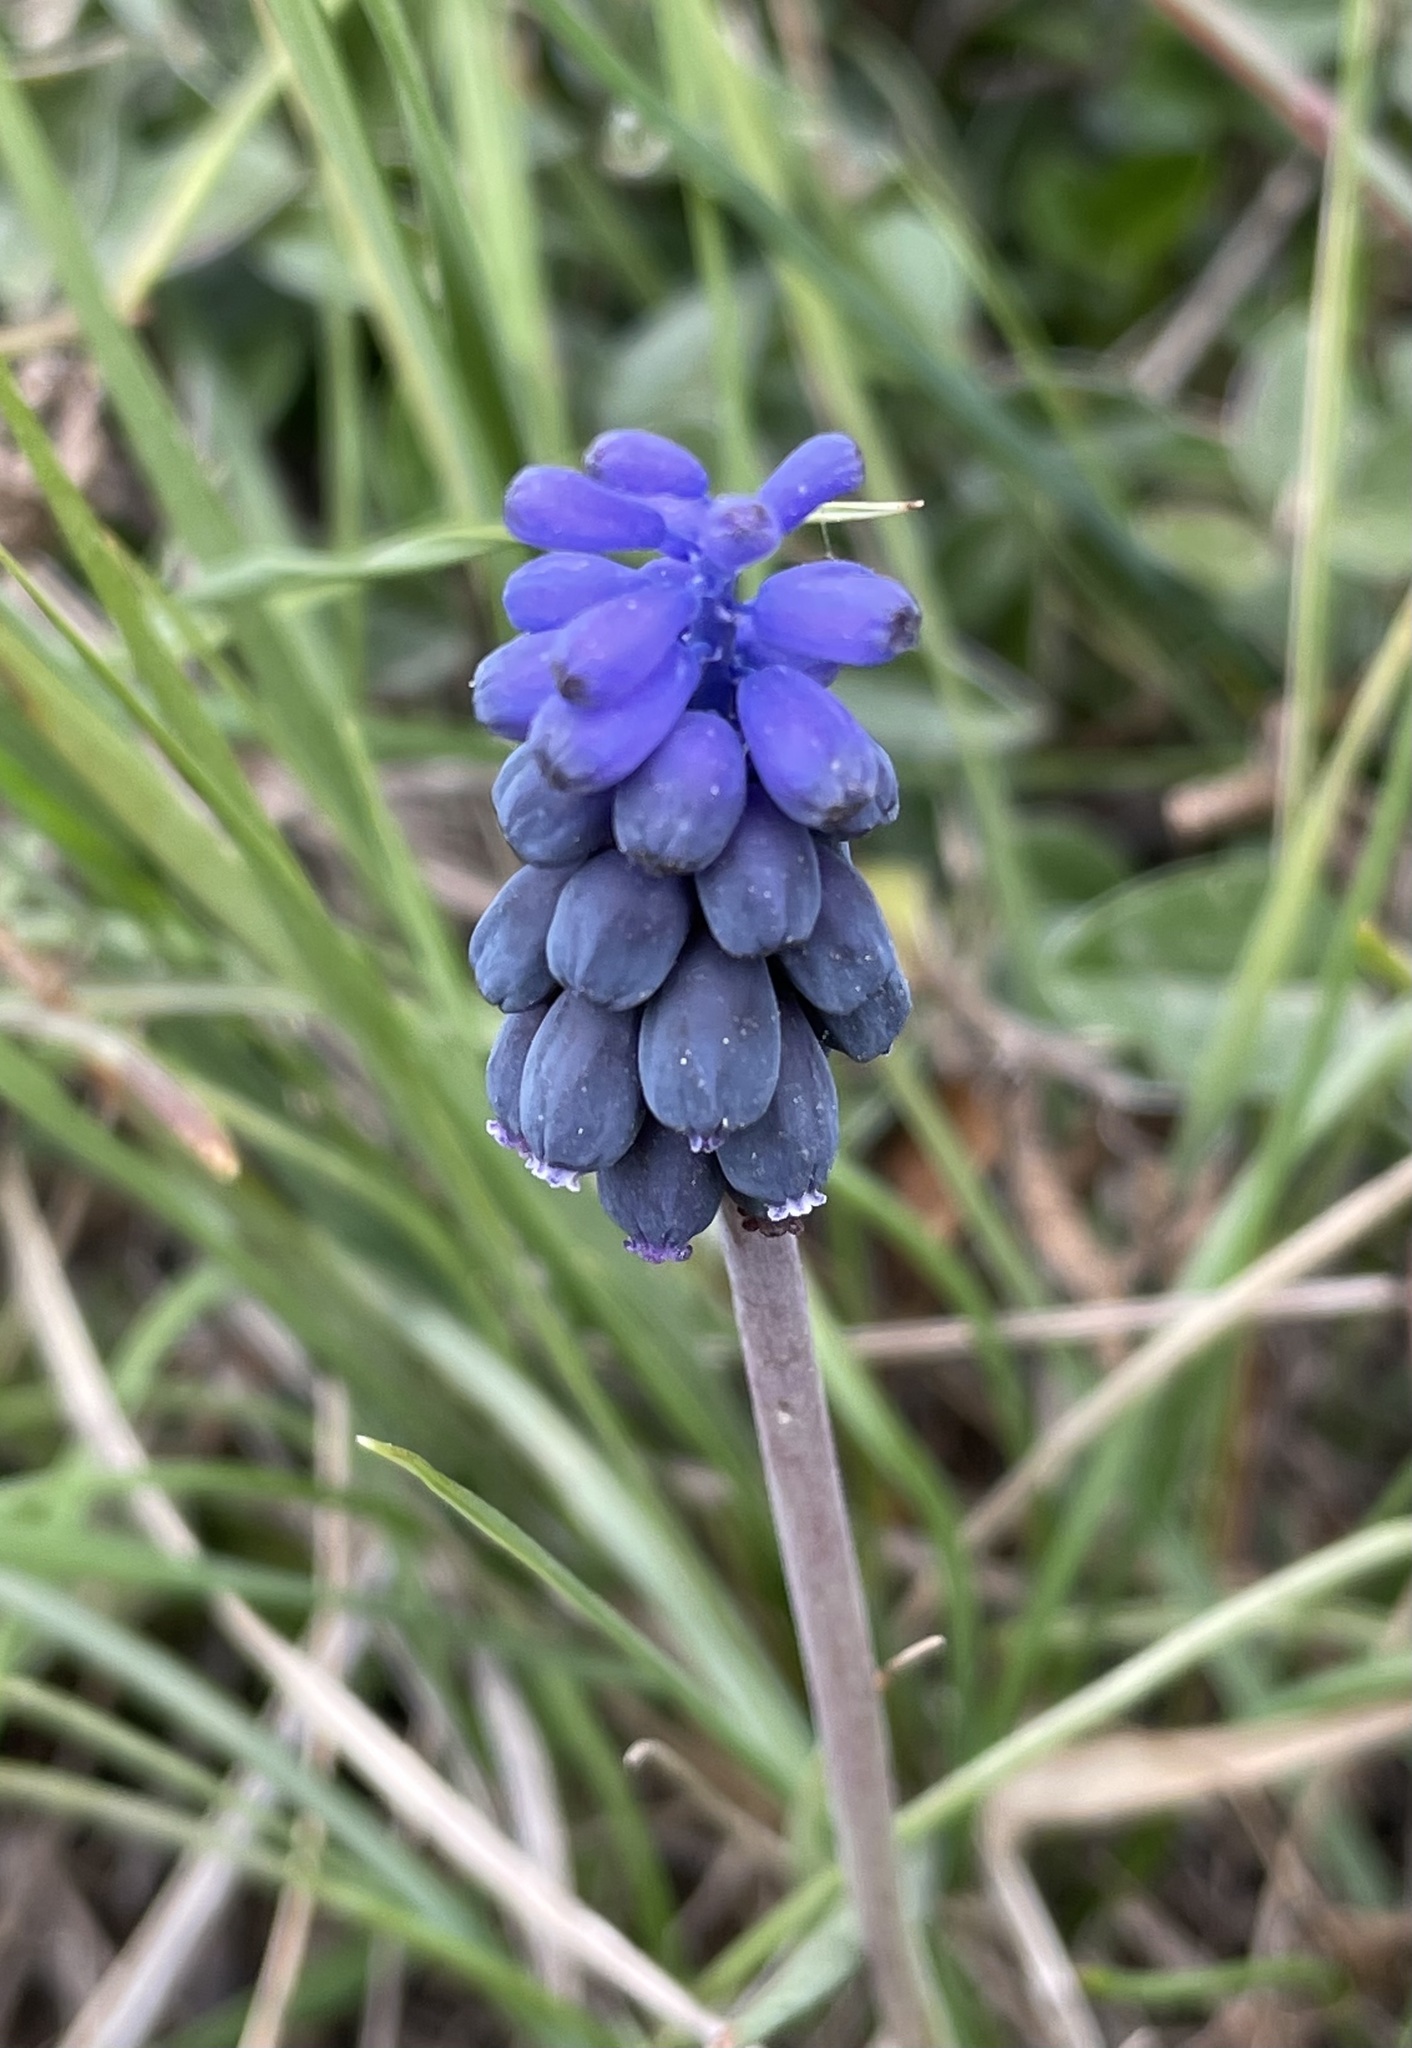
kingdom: Plantae
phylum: Tracheophyta
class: Liliopsida
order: Asparagales
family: Asparagaceae
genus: Muscari
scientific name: Muscari neglectum
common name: Grape-hyacinth
